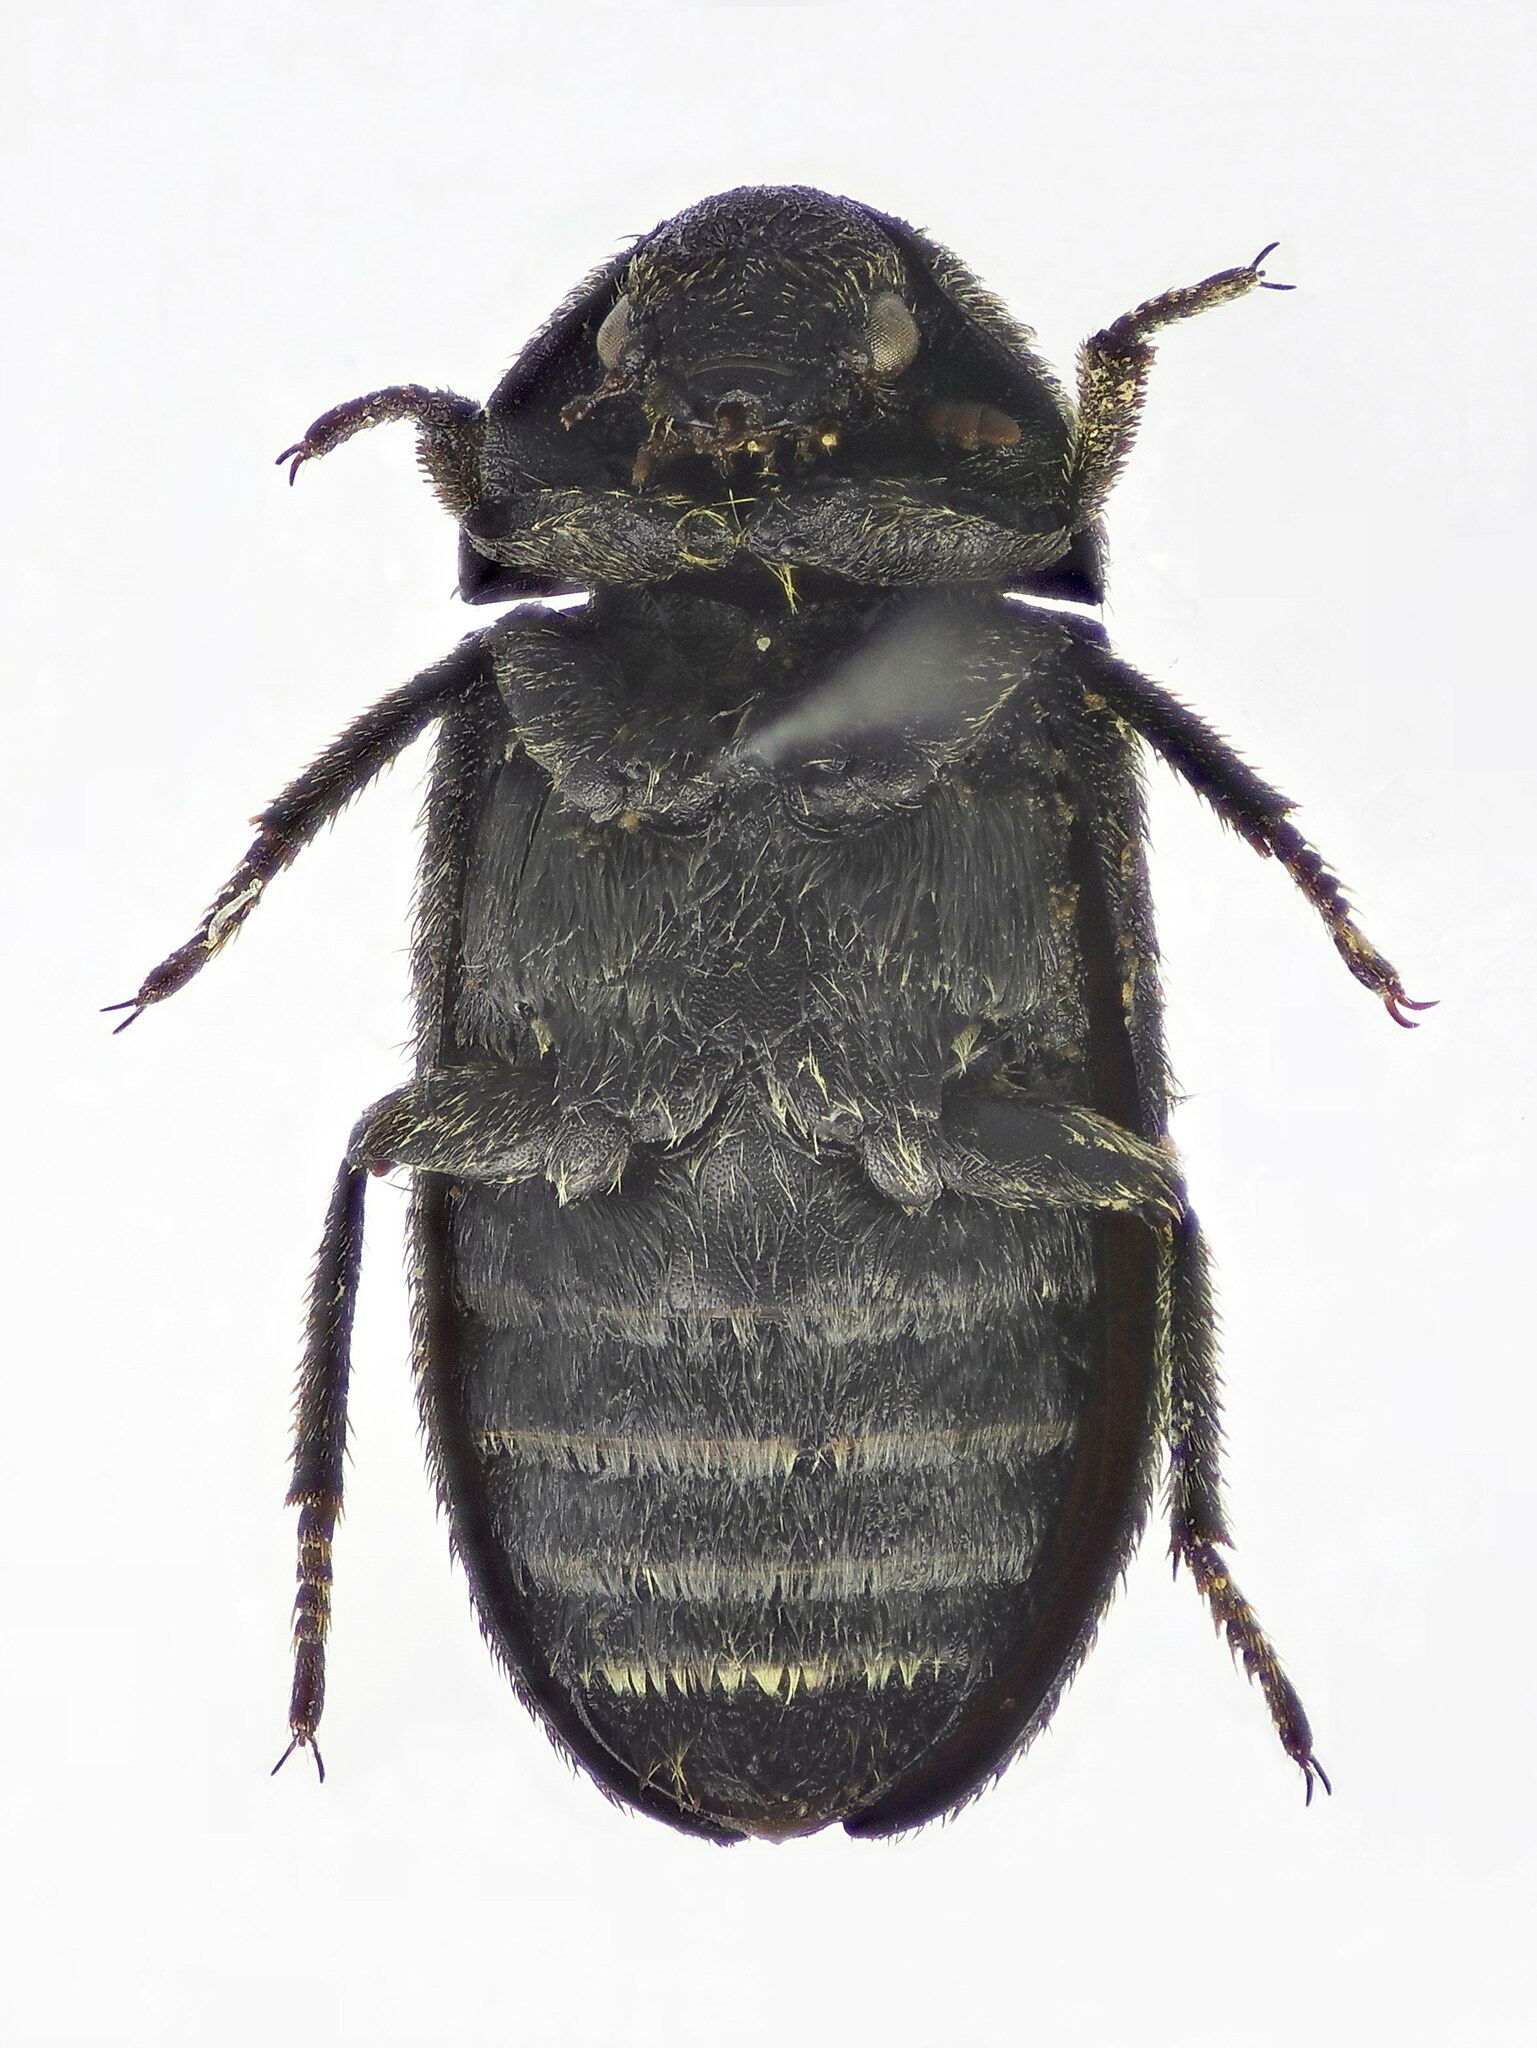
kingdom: Animalia
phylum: Arthropoda
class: Insecta
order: Coleoptera
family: Dermestidae
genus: Dermestes
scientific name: Dermestes laniarius
